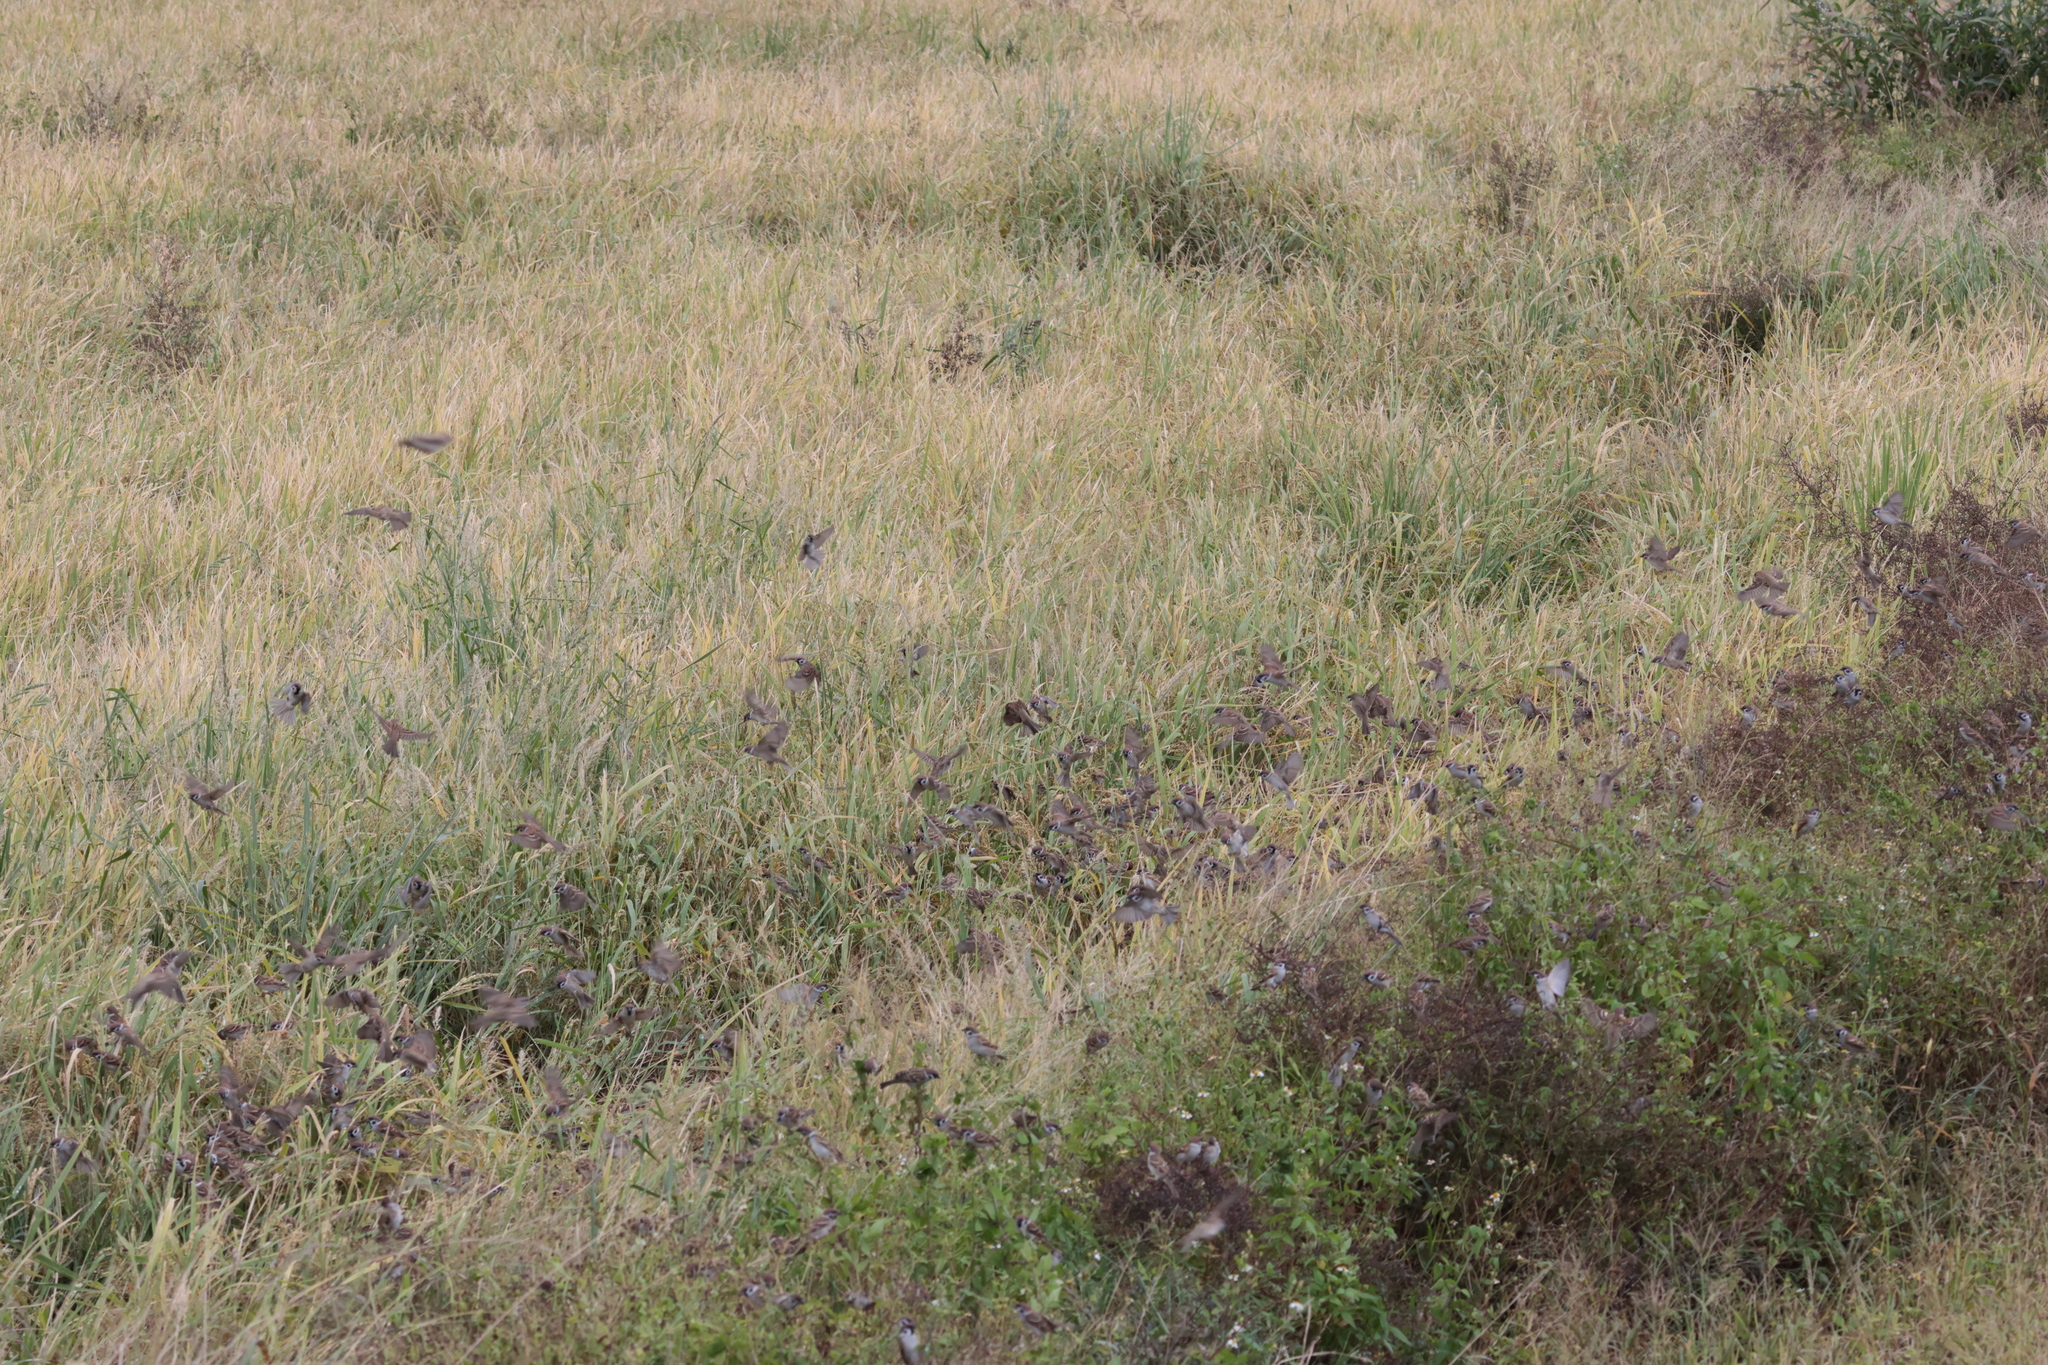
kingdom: Animalia
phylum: Chordata
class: Aves
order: Passeriformes
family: Passeridae
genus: Passer
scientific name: Passer montanus
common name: Eurasian tree sparrow
